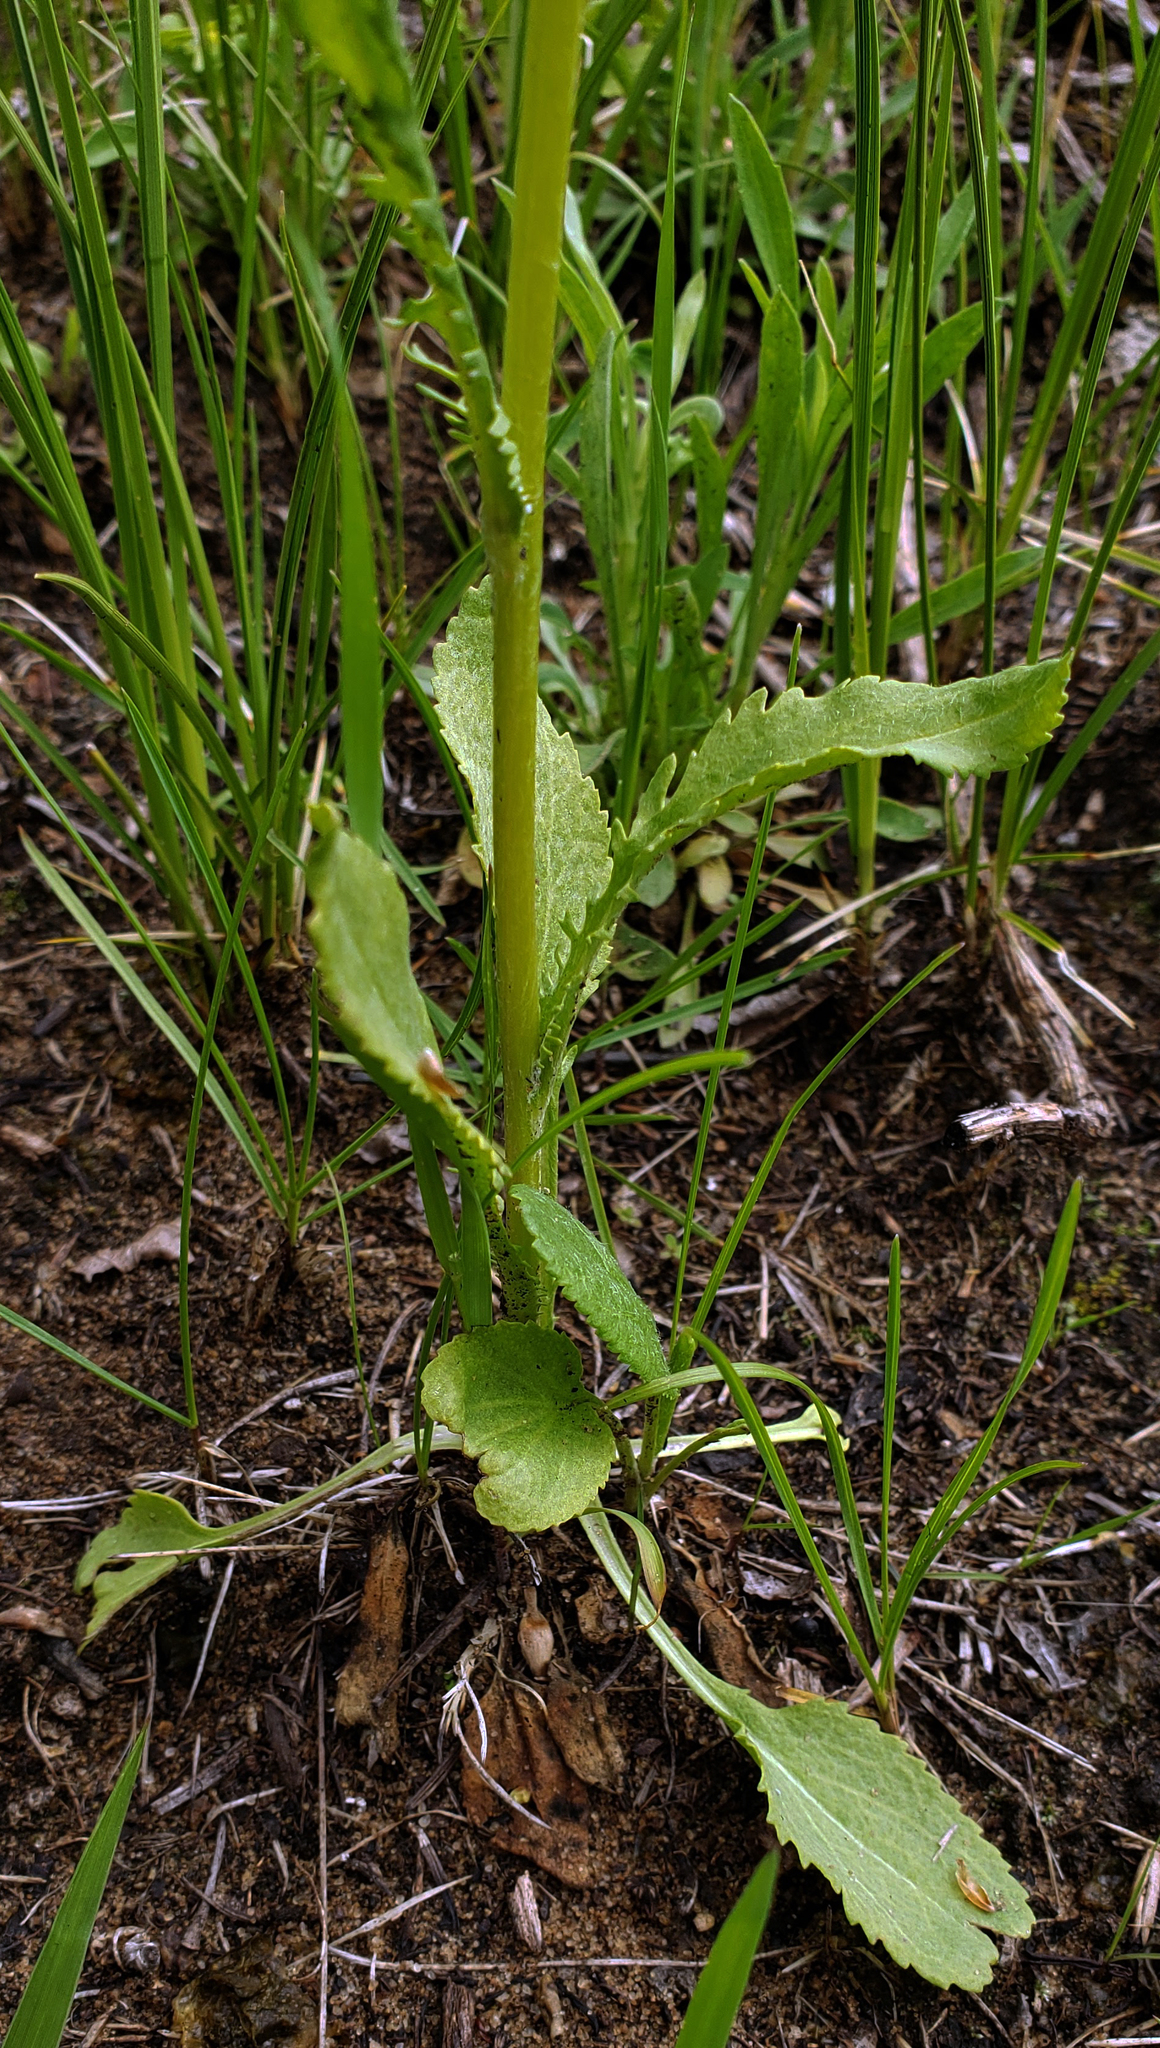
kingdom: Plantae
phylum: Tracheophyta
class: Magnoliopsida
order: Asterales
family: Asteraceae
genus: Packera
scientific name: Packera paupercula
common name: Balsam groundsel
